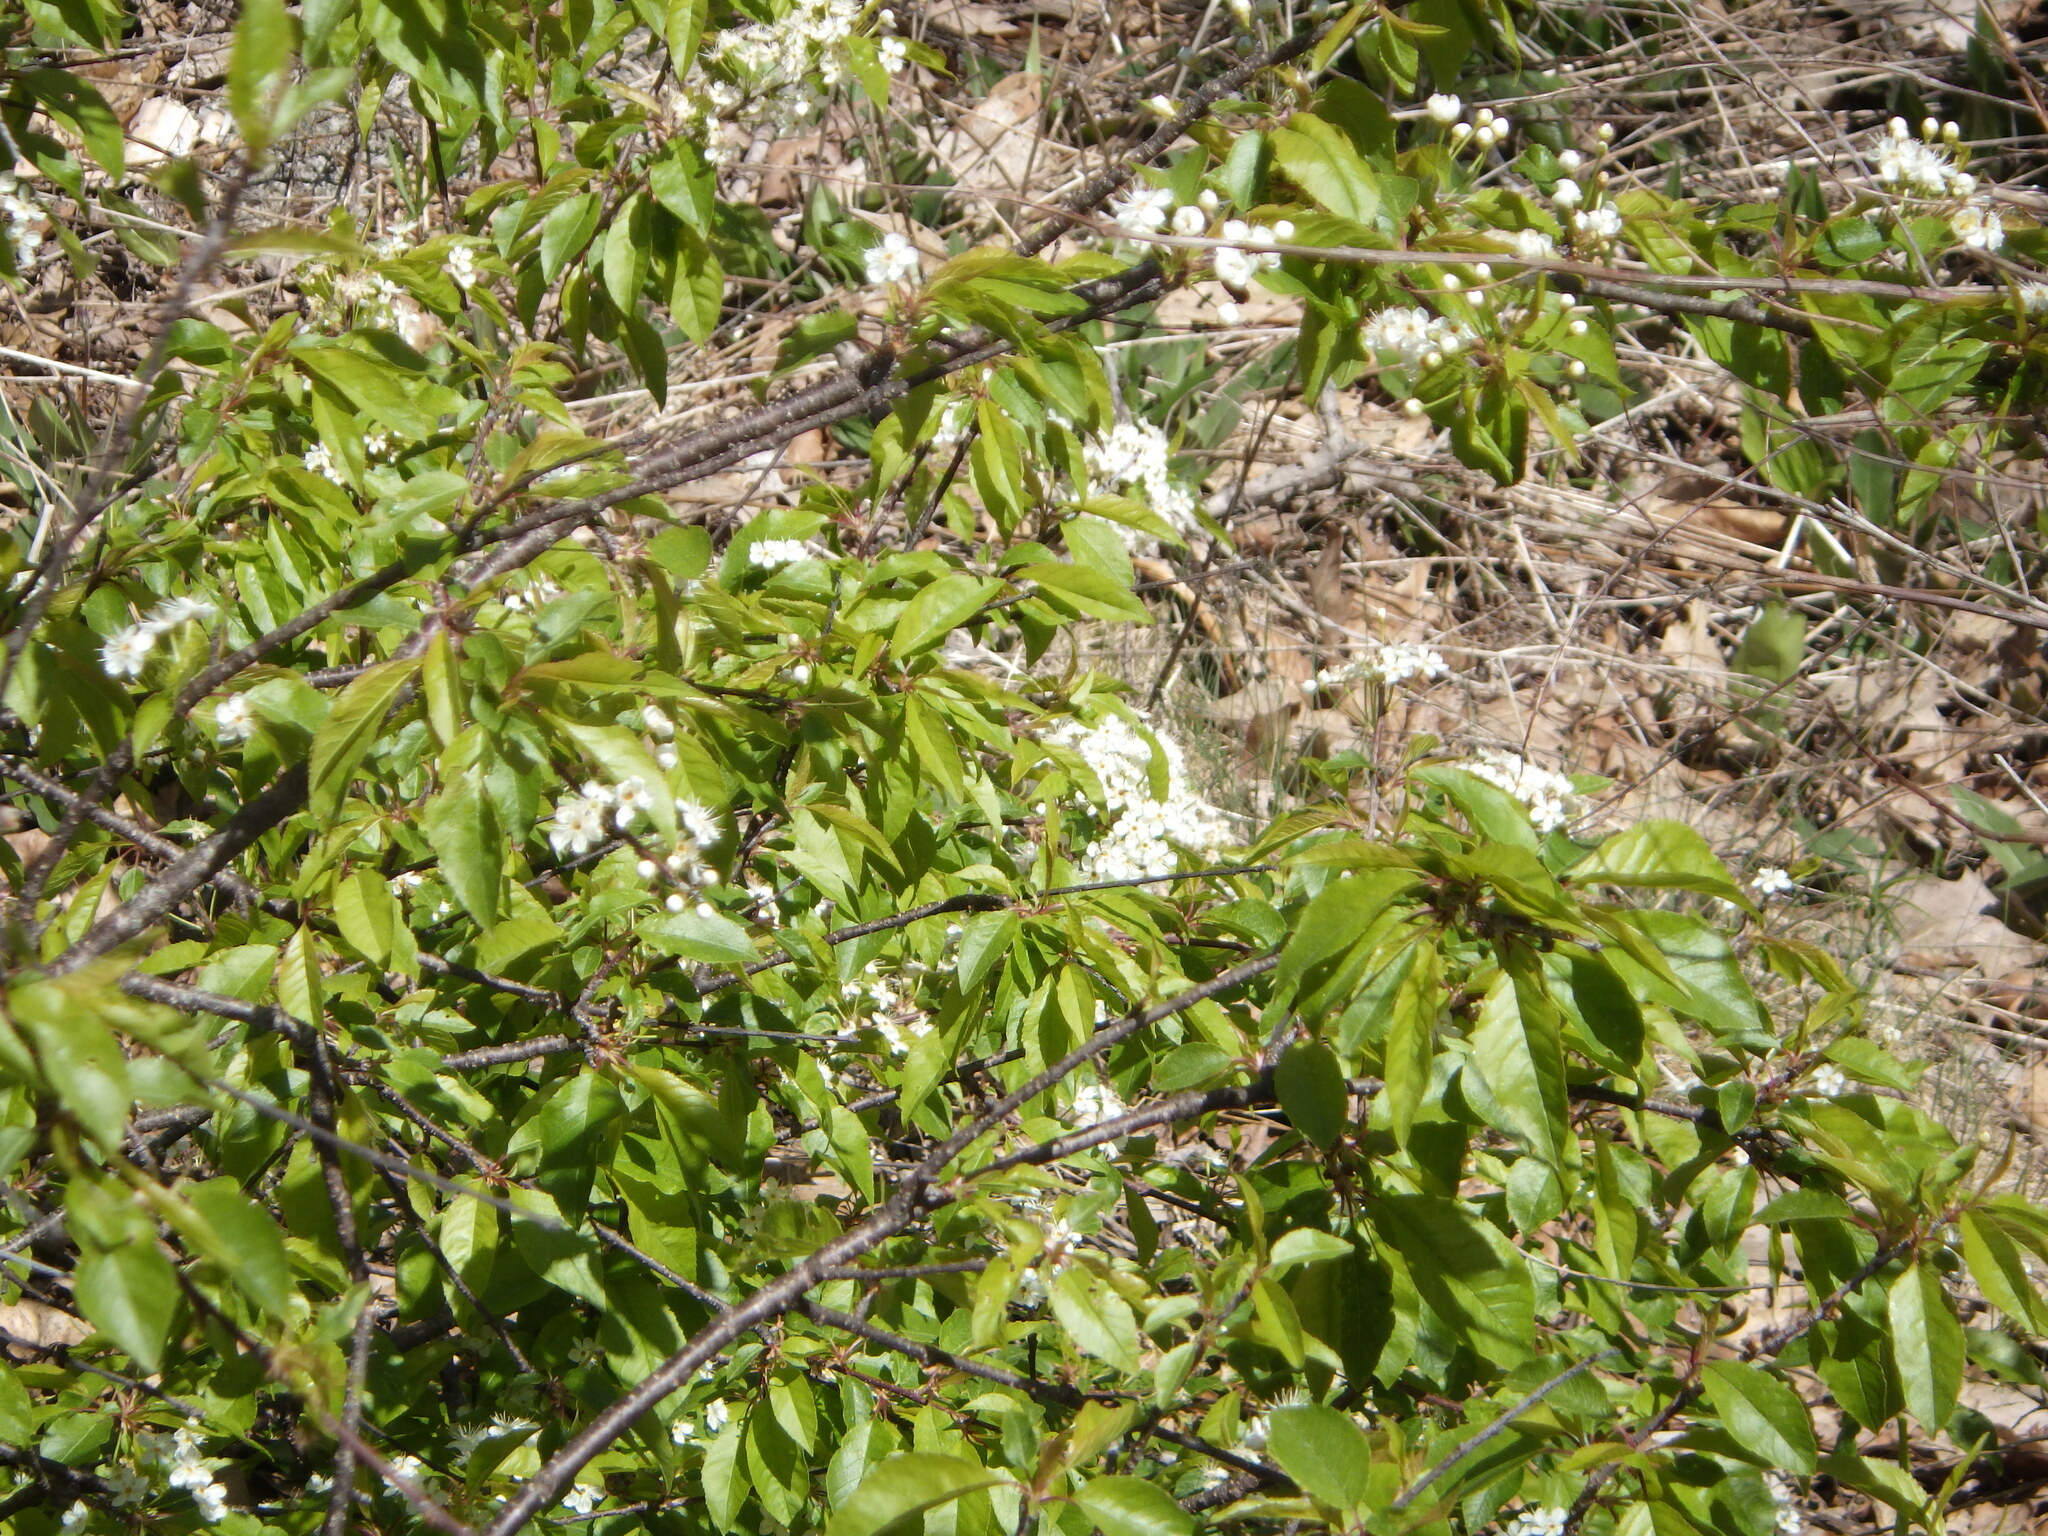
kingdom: Plantae
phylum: Tracheophyta
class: Magnoliopsida
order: Rosales
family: Rosaceae
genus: Prunus
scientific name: Prunus pensylvanica
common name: Pin cherry
